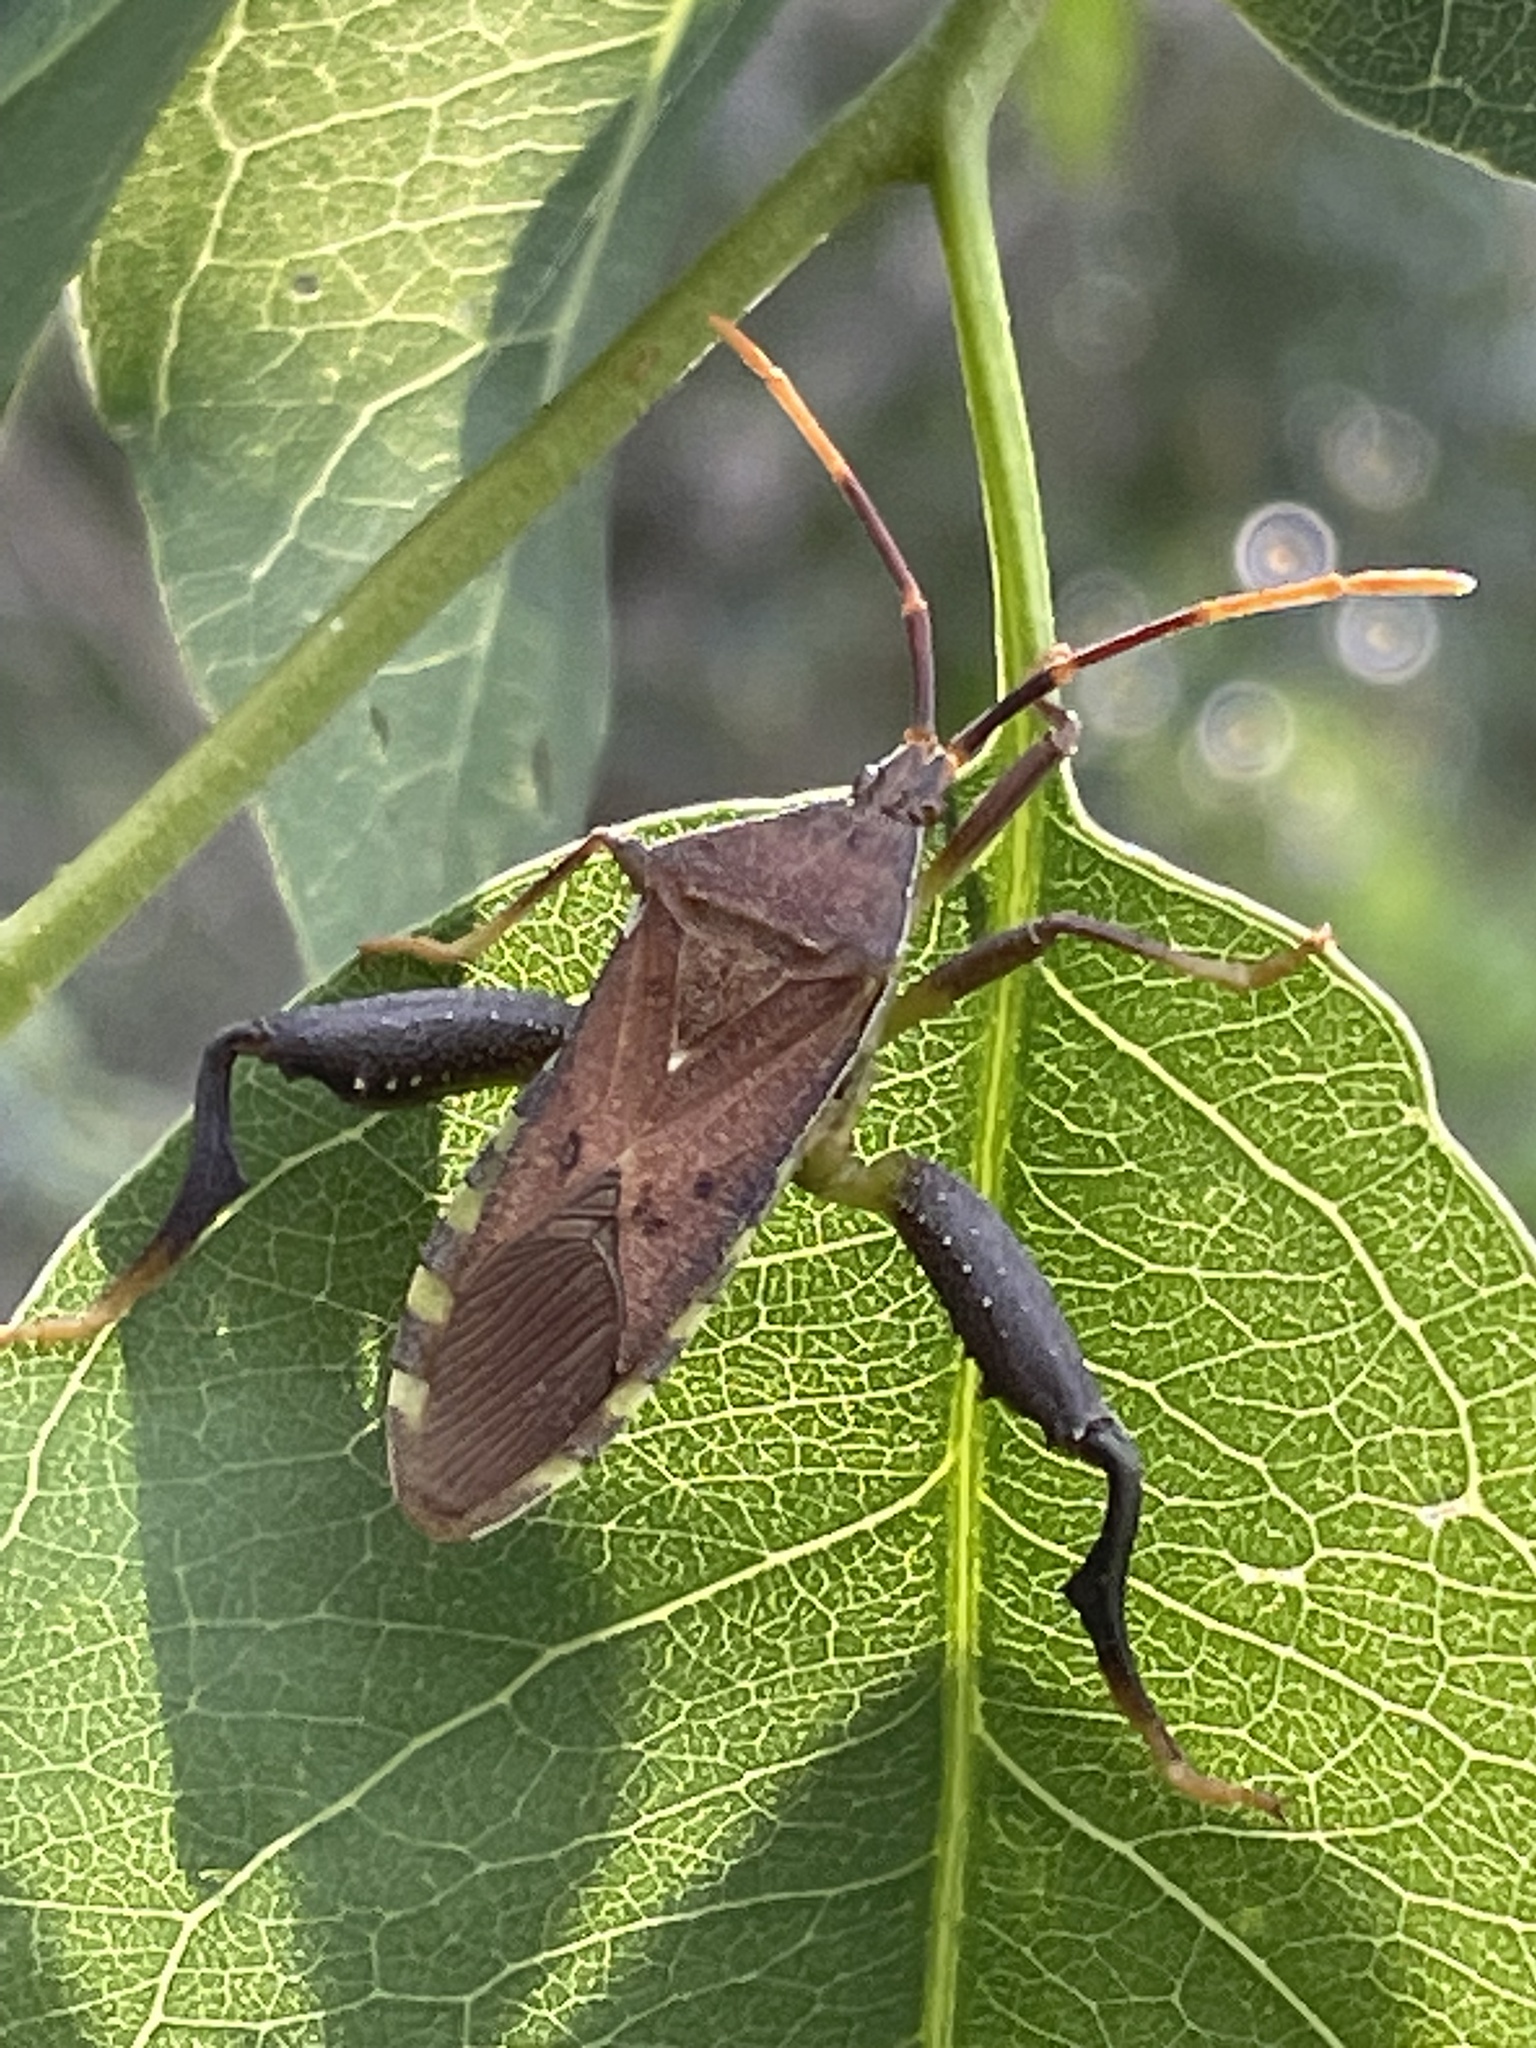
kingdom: Animalia
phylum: Arthropoda
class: Insecta
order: Hemiptera
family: Coreidae
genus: Amorbus
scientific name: Amorbus alternatus
